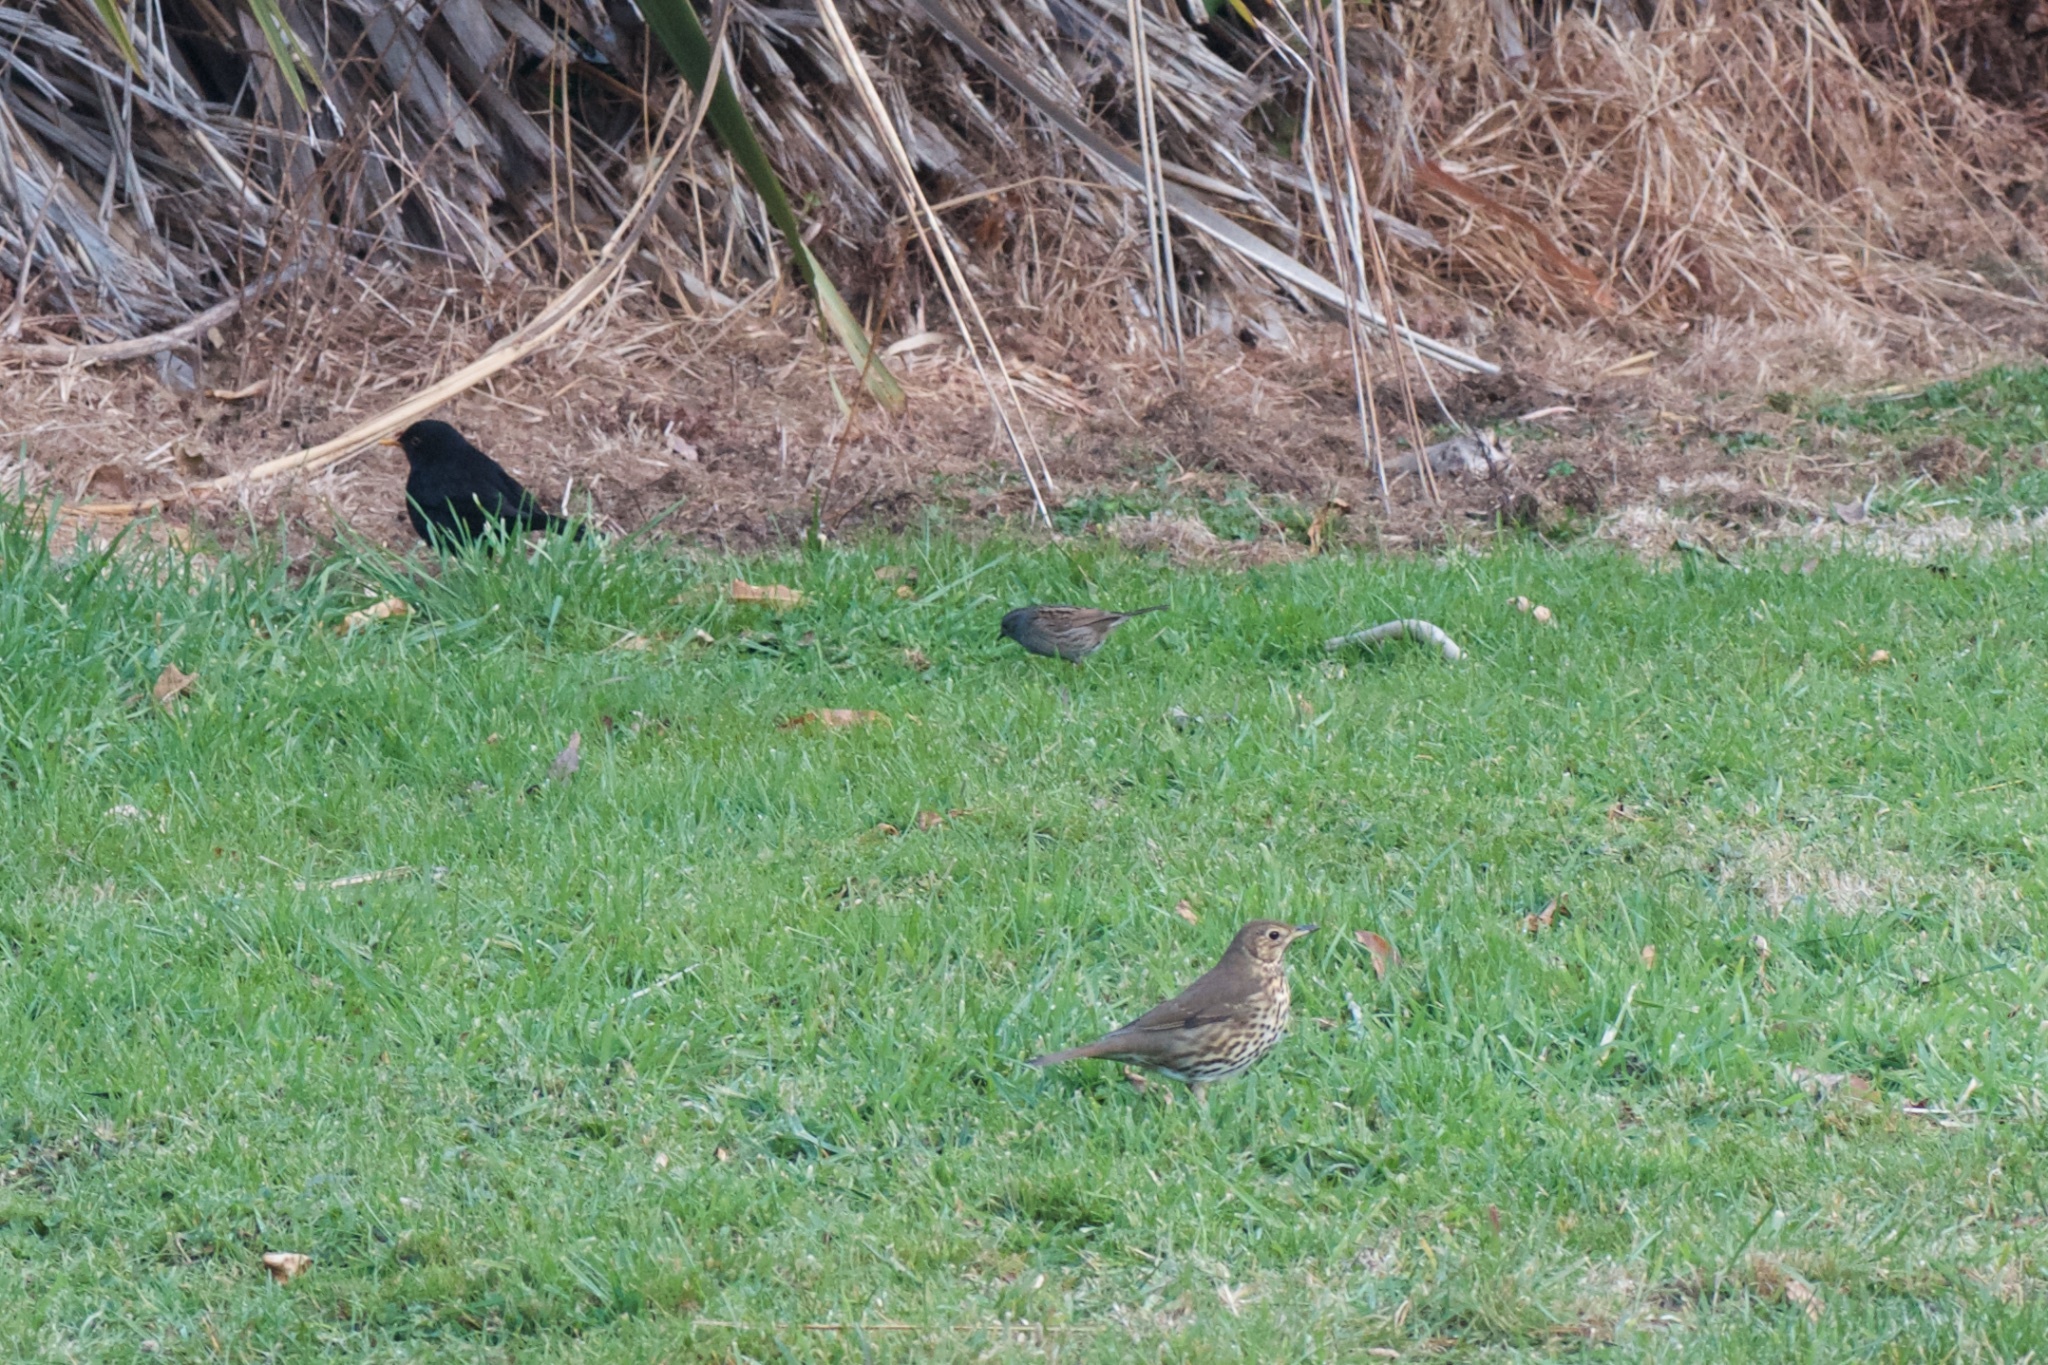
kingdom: Animalia
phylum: Chordata
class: Aves
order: Passeriformes
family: Prunellidae
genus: Prunella
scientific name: Prunella modularis
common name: Dunnock
